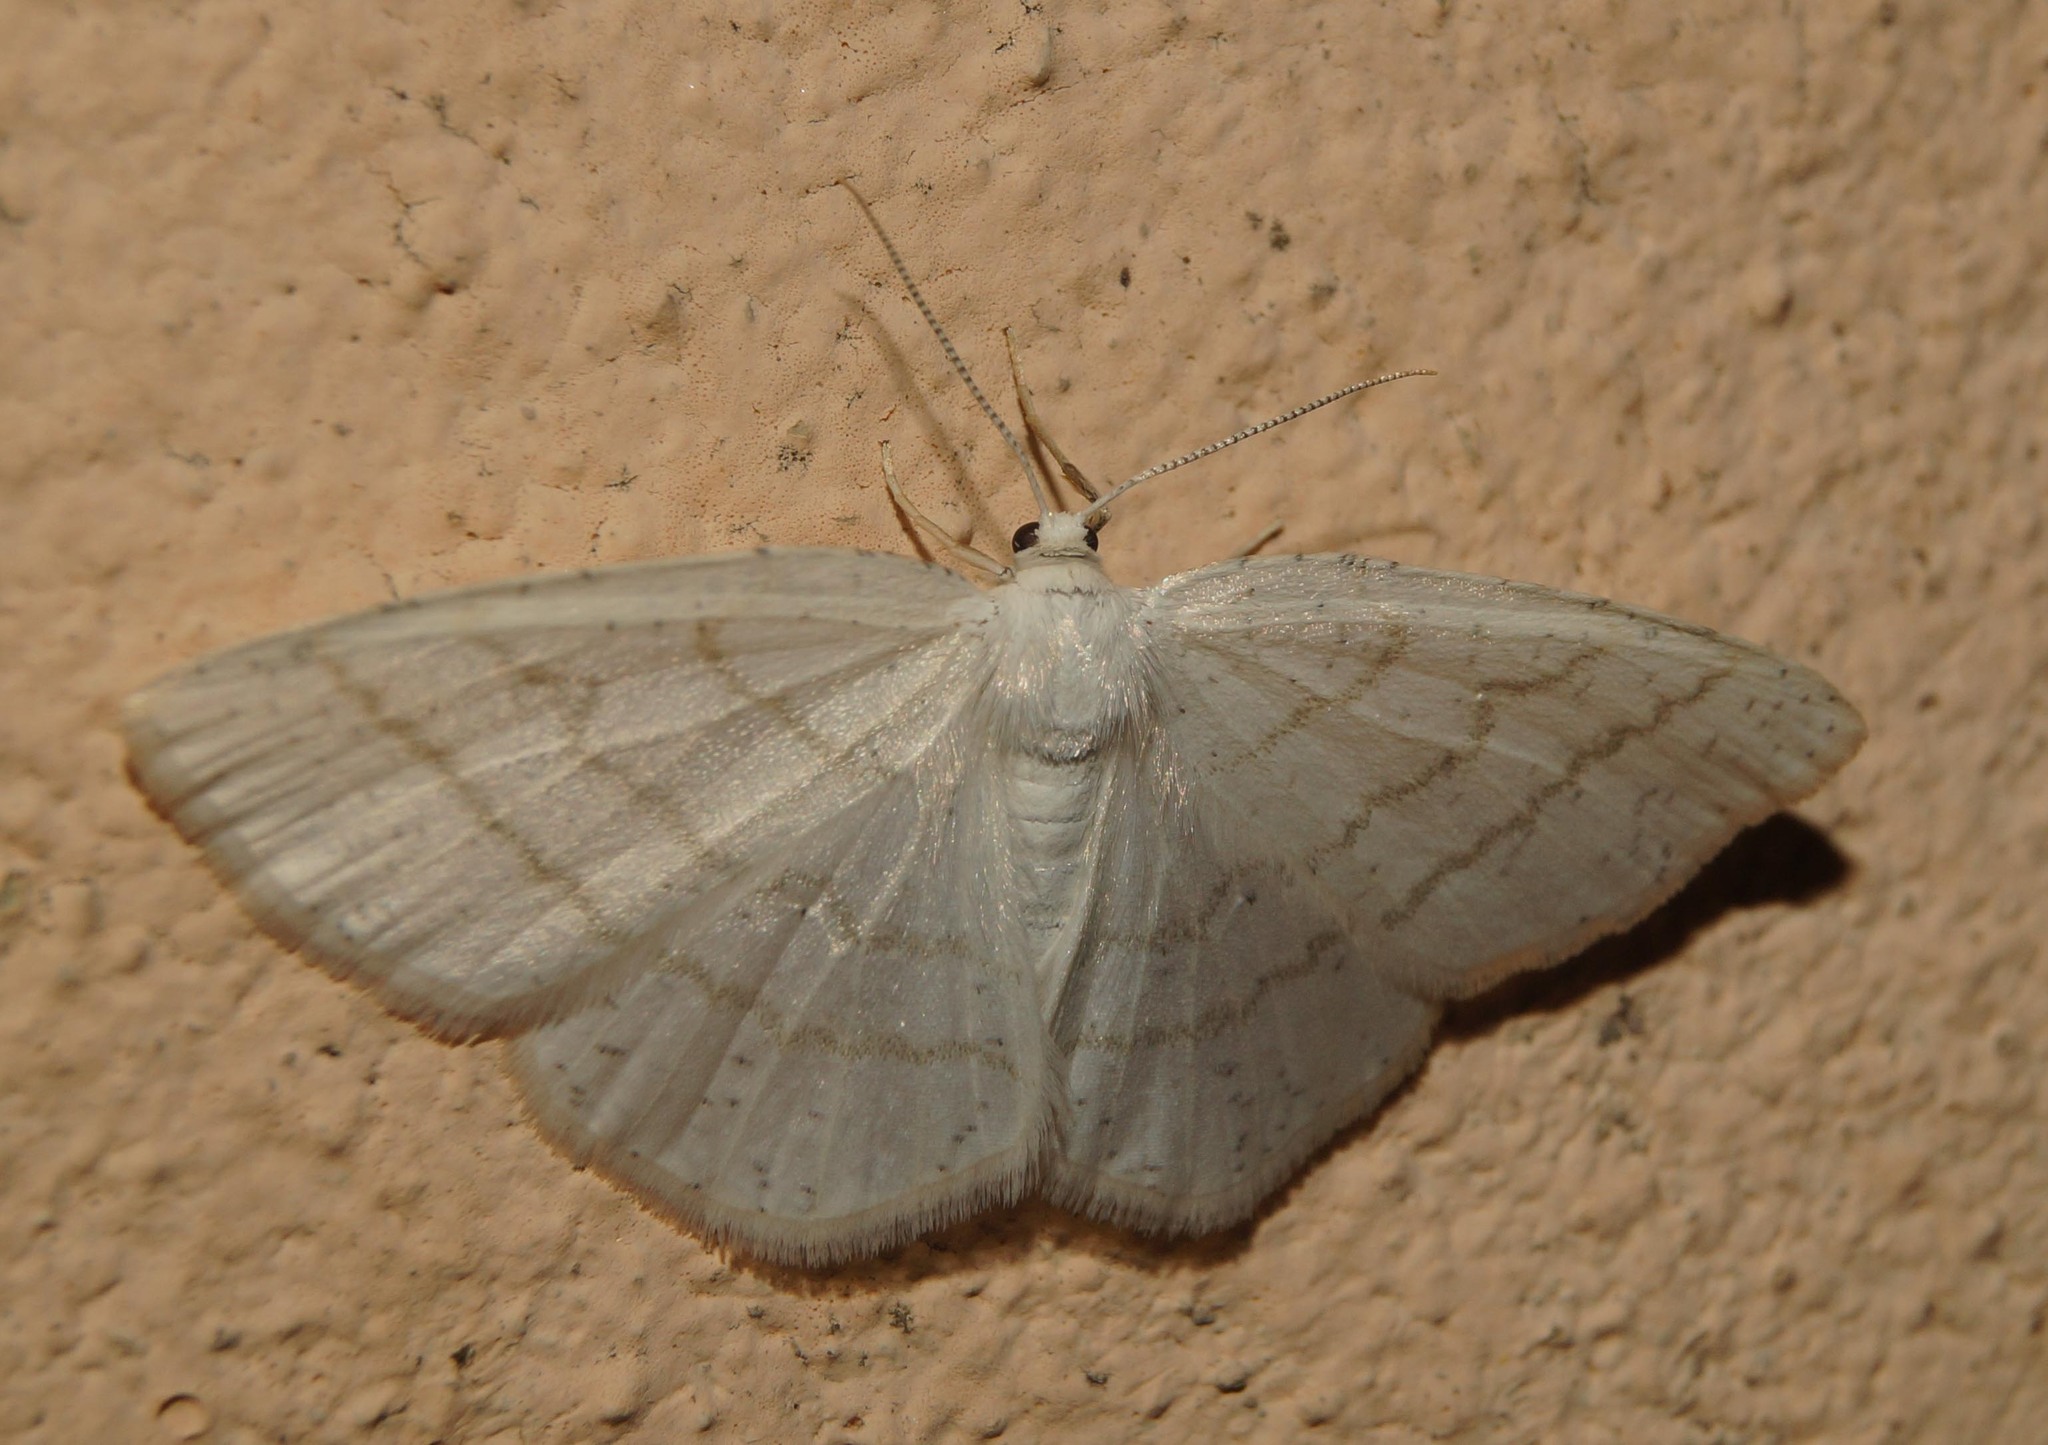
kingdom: Animalia
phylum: Arthropoda
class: Insecta
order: Lepidoptera
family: Geometridae
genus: Cabera
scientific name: Cabera pusaria
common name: Common white wave
